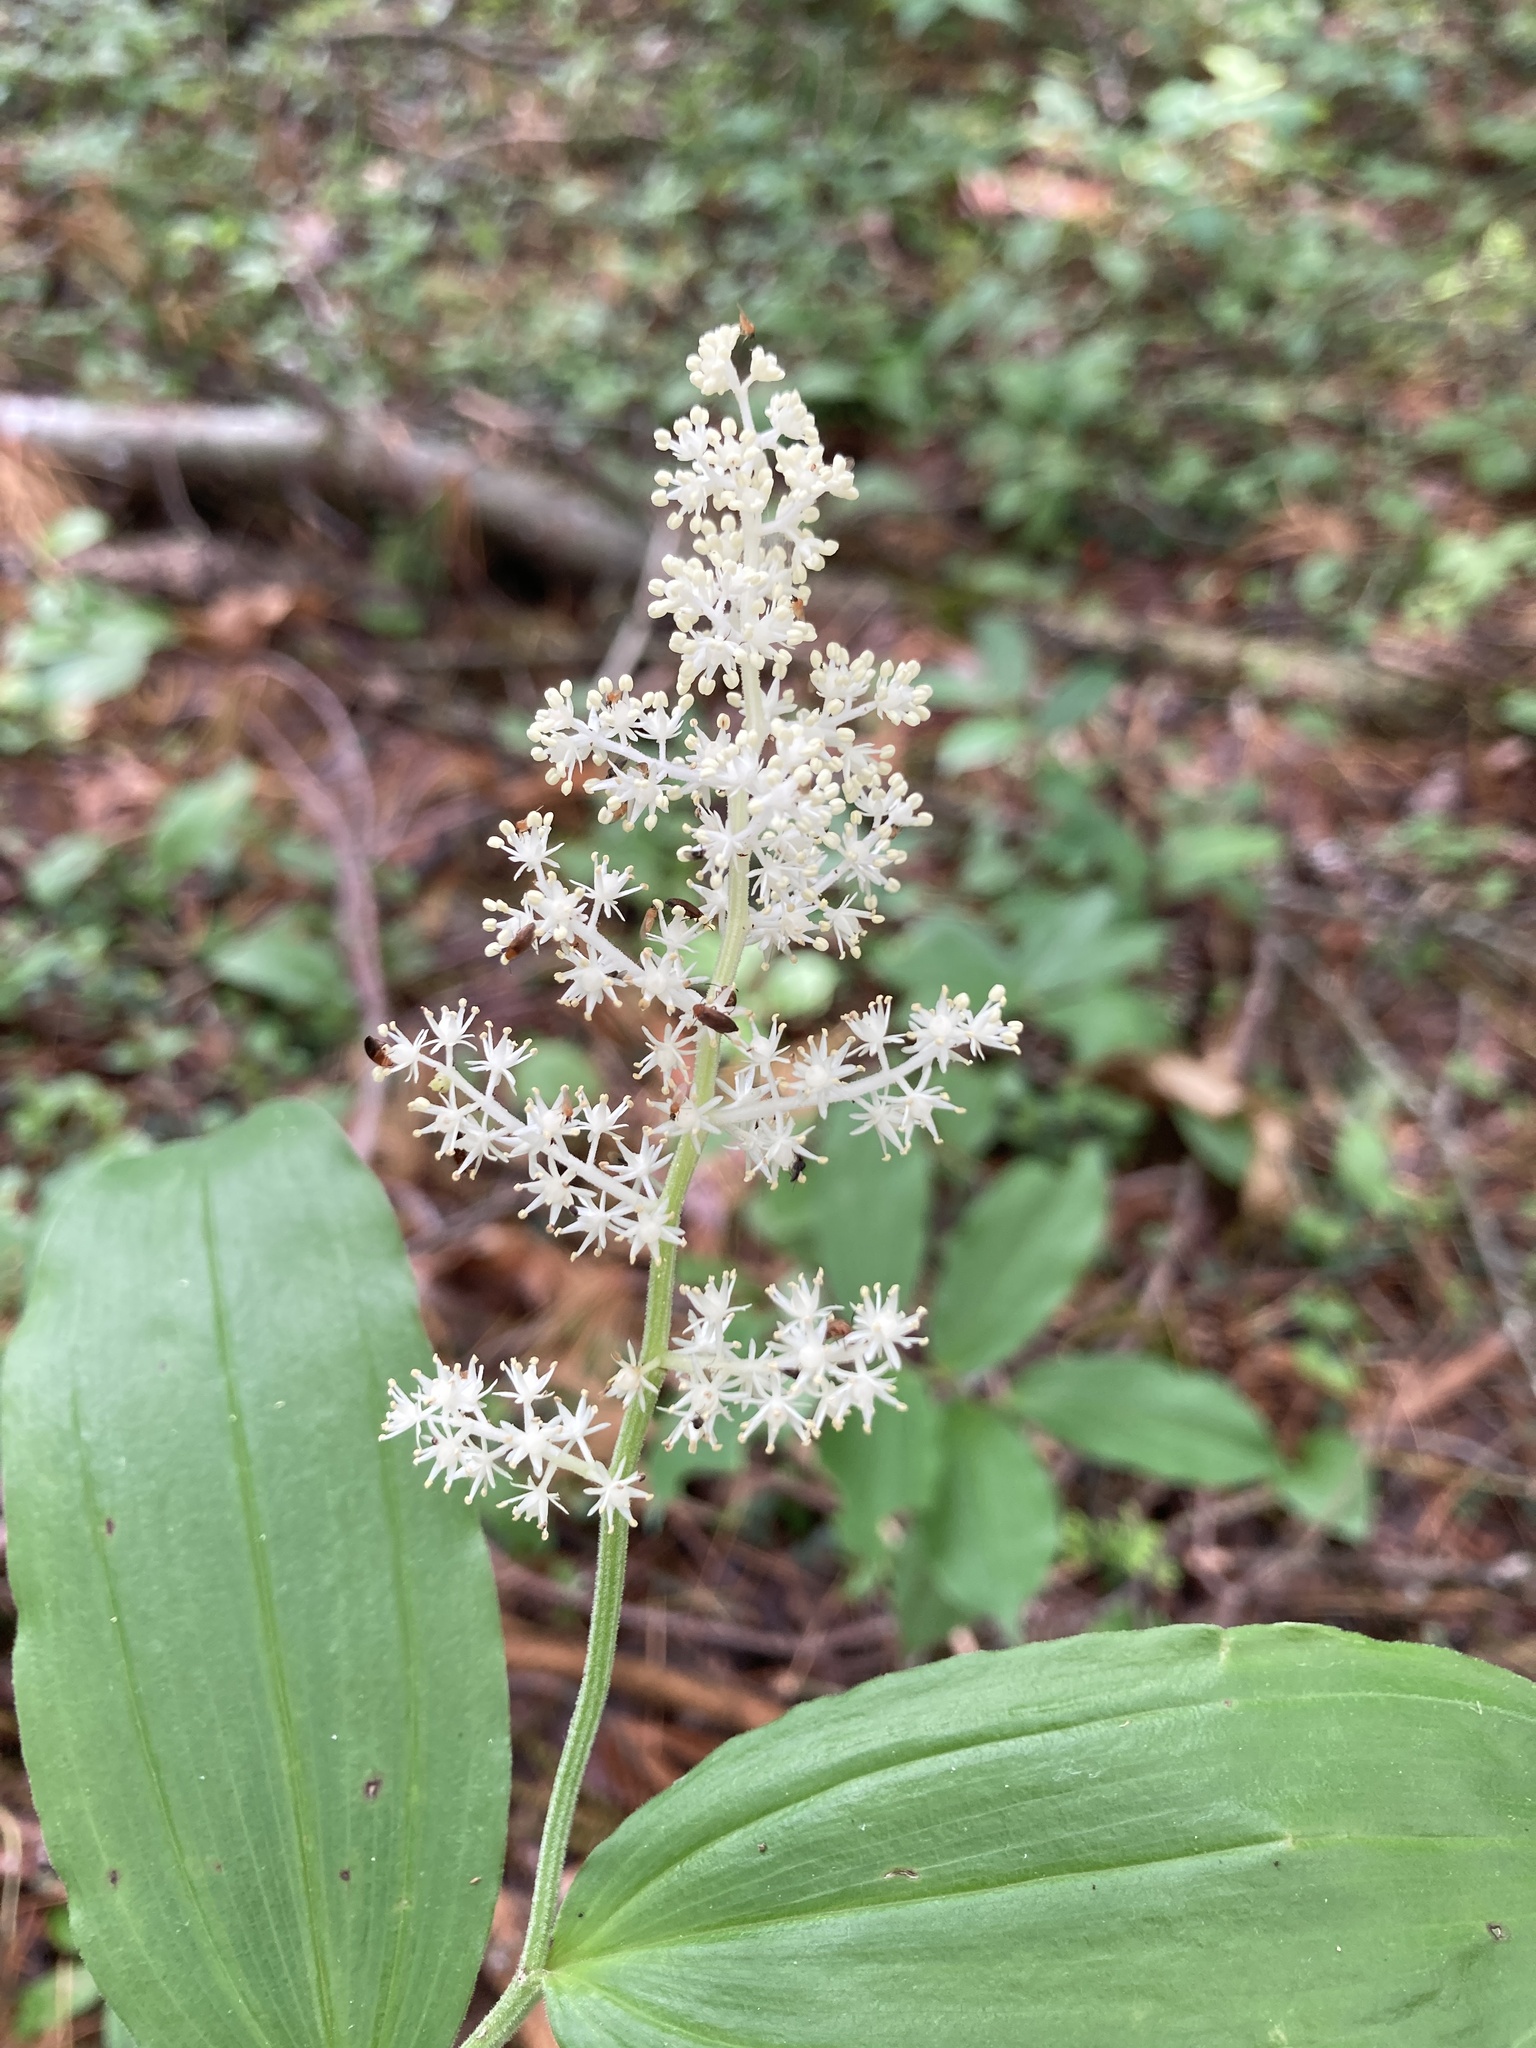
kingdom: Plantae
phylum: Tracheophyta
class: Liliopsida
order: Asparagales
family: Asparagaceae
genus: Maianthemum
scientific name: Maianthemum racemosum
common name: False spikenard
